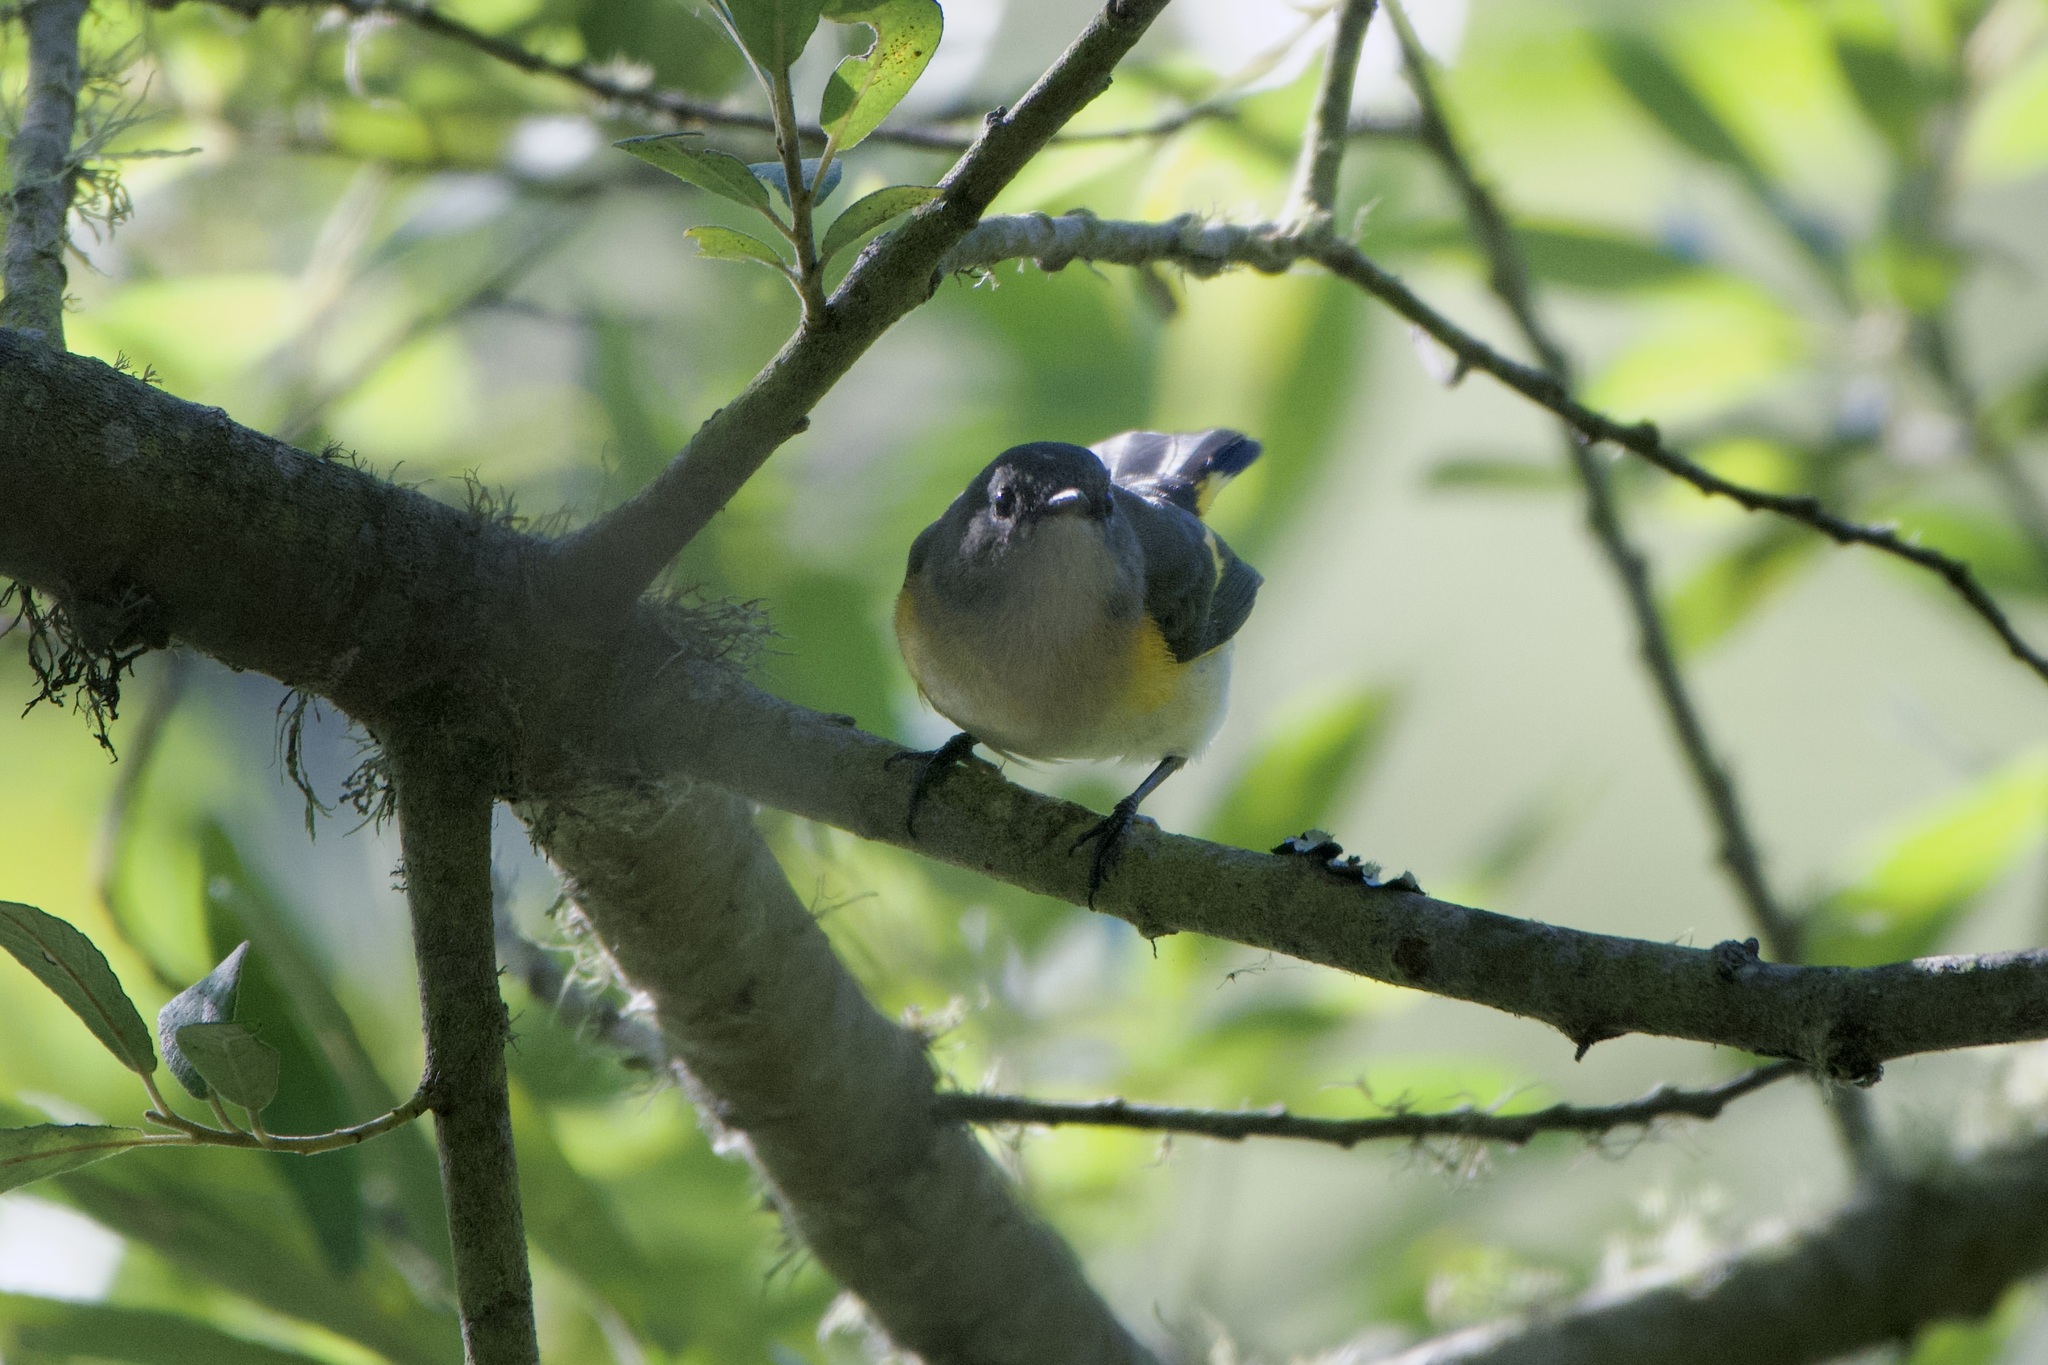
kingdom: Animalia
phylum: Chordata
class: Aves
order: Passeriformes
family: Parulidae
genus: Setophaga
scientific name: Setophaga ruticilla
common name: American redstart
